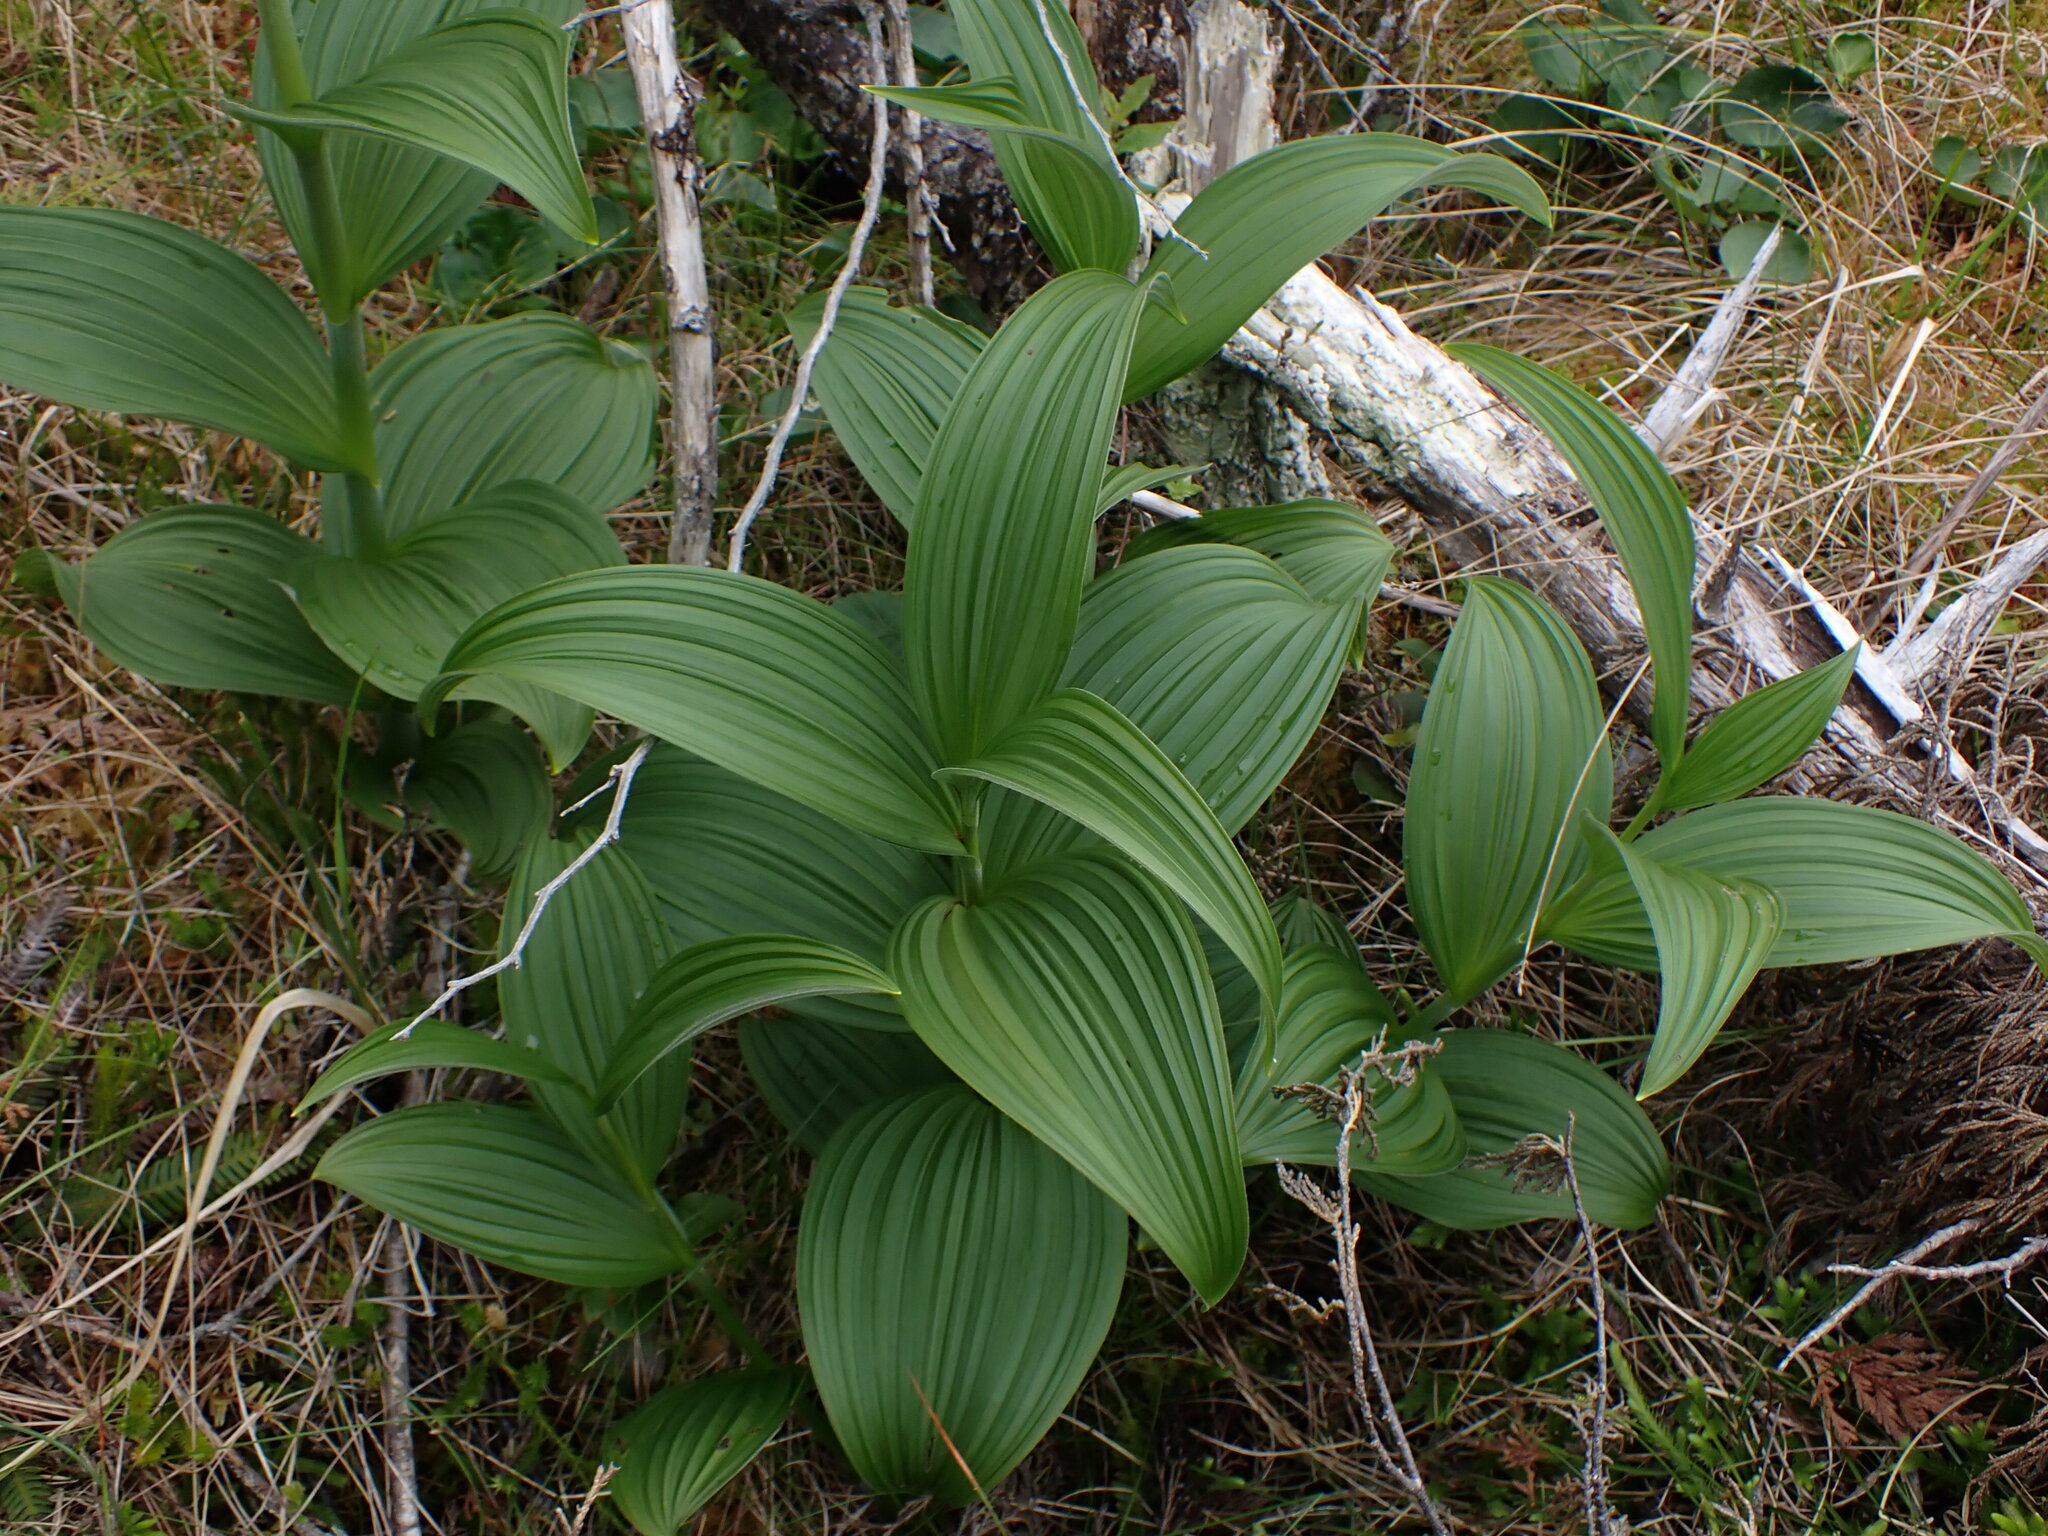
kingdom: Plantae
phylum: Tracheophyta
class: Liliopsida
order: Liliales
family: Melanthiaceae
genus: Veratrum
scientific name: Veratrum viride
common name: American false hellebore
